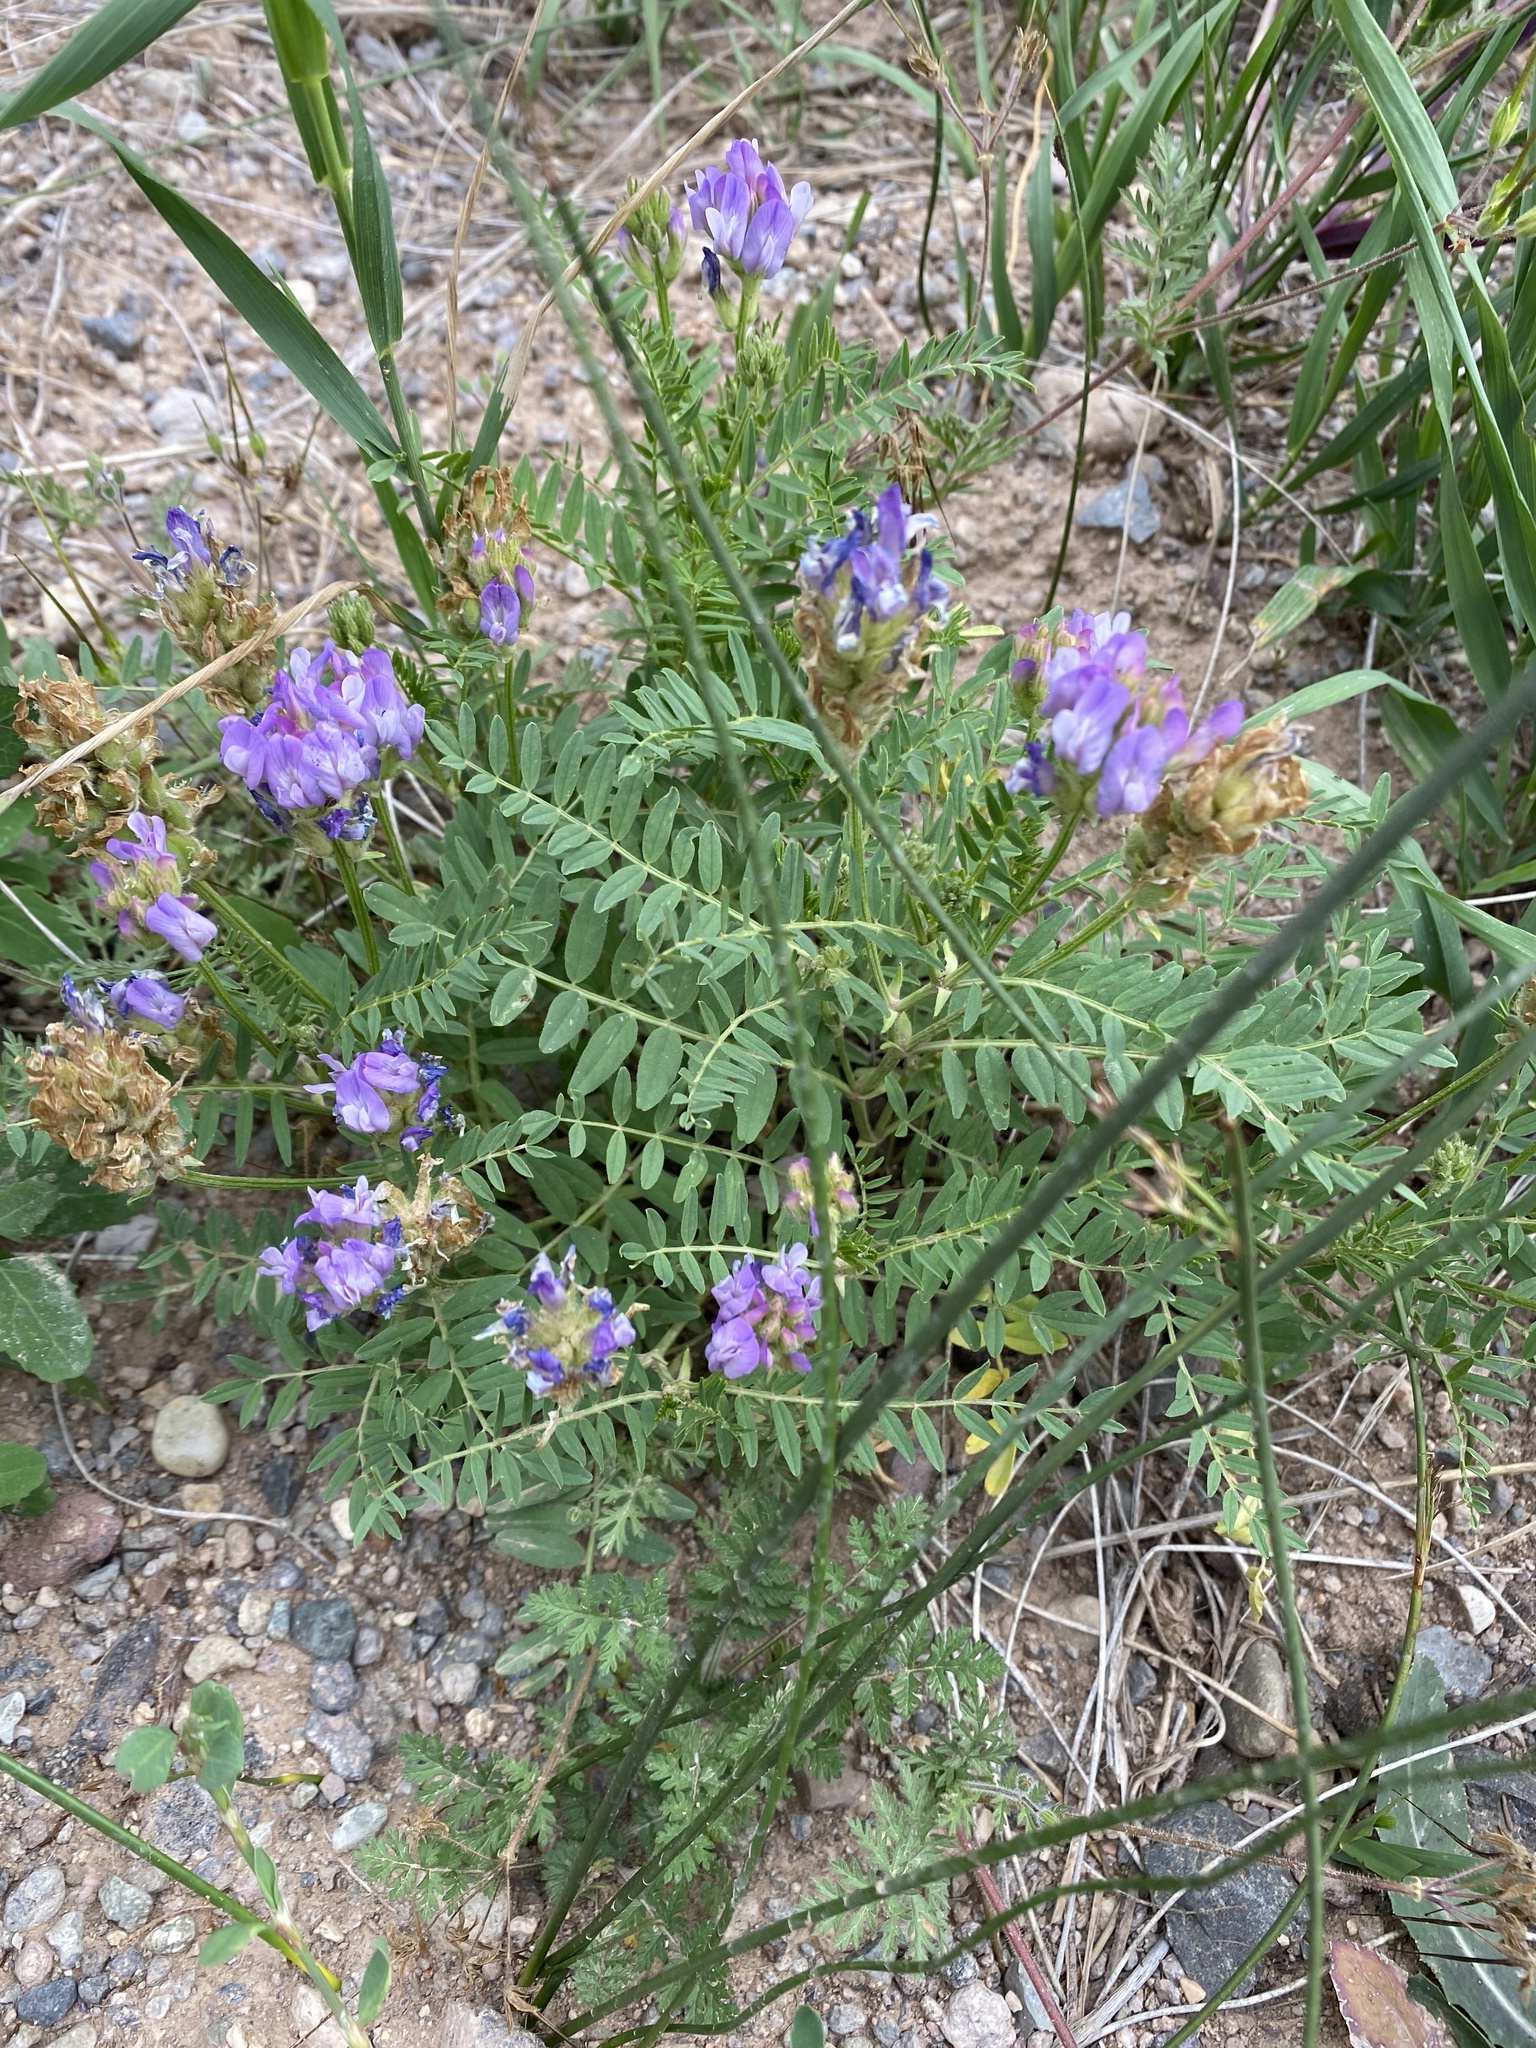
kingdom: Plantae
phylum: Tracheophyta
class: Magnoliopsida
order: Fabales
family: Fabaceae
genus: Astragalus
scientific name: Astragalus agrestis
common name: Field milk-vetch
